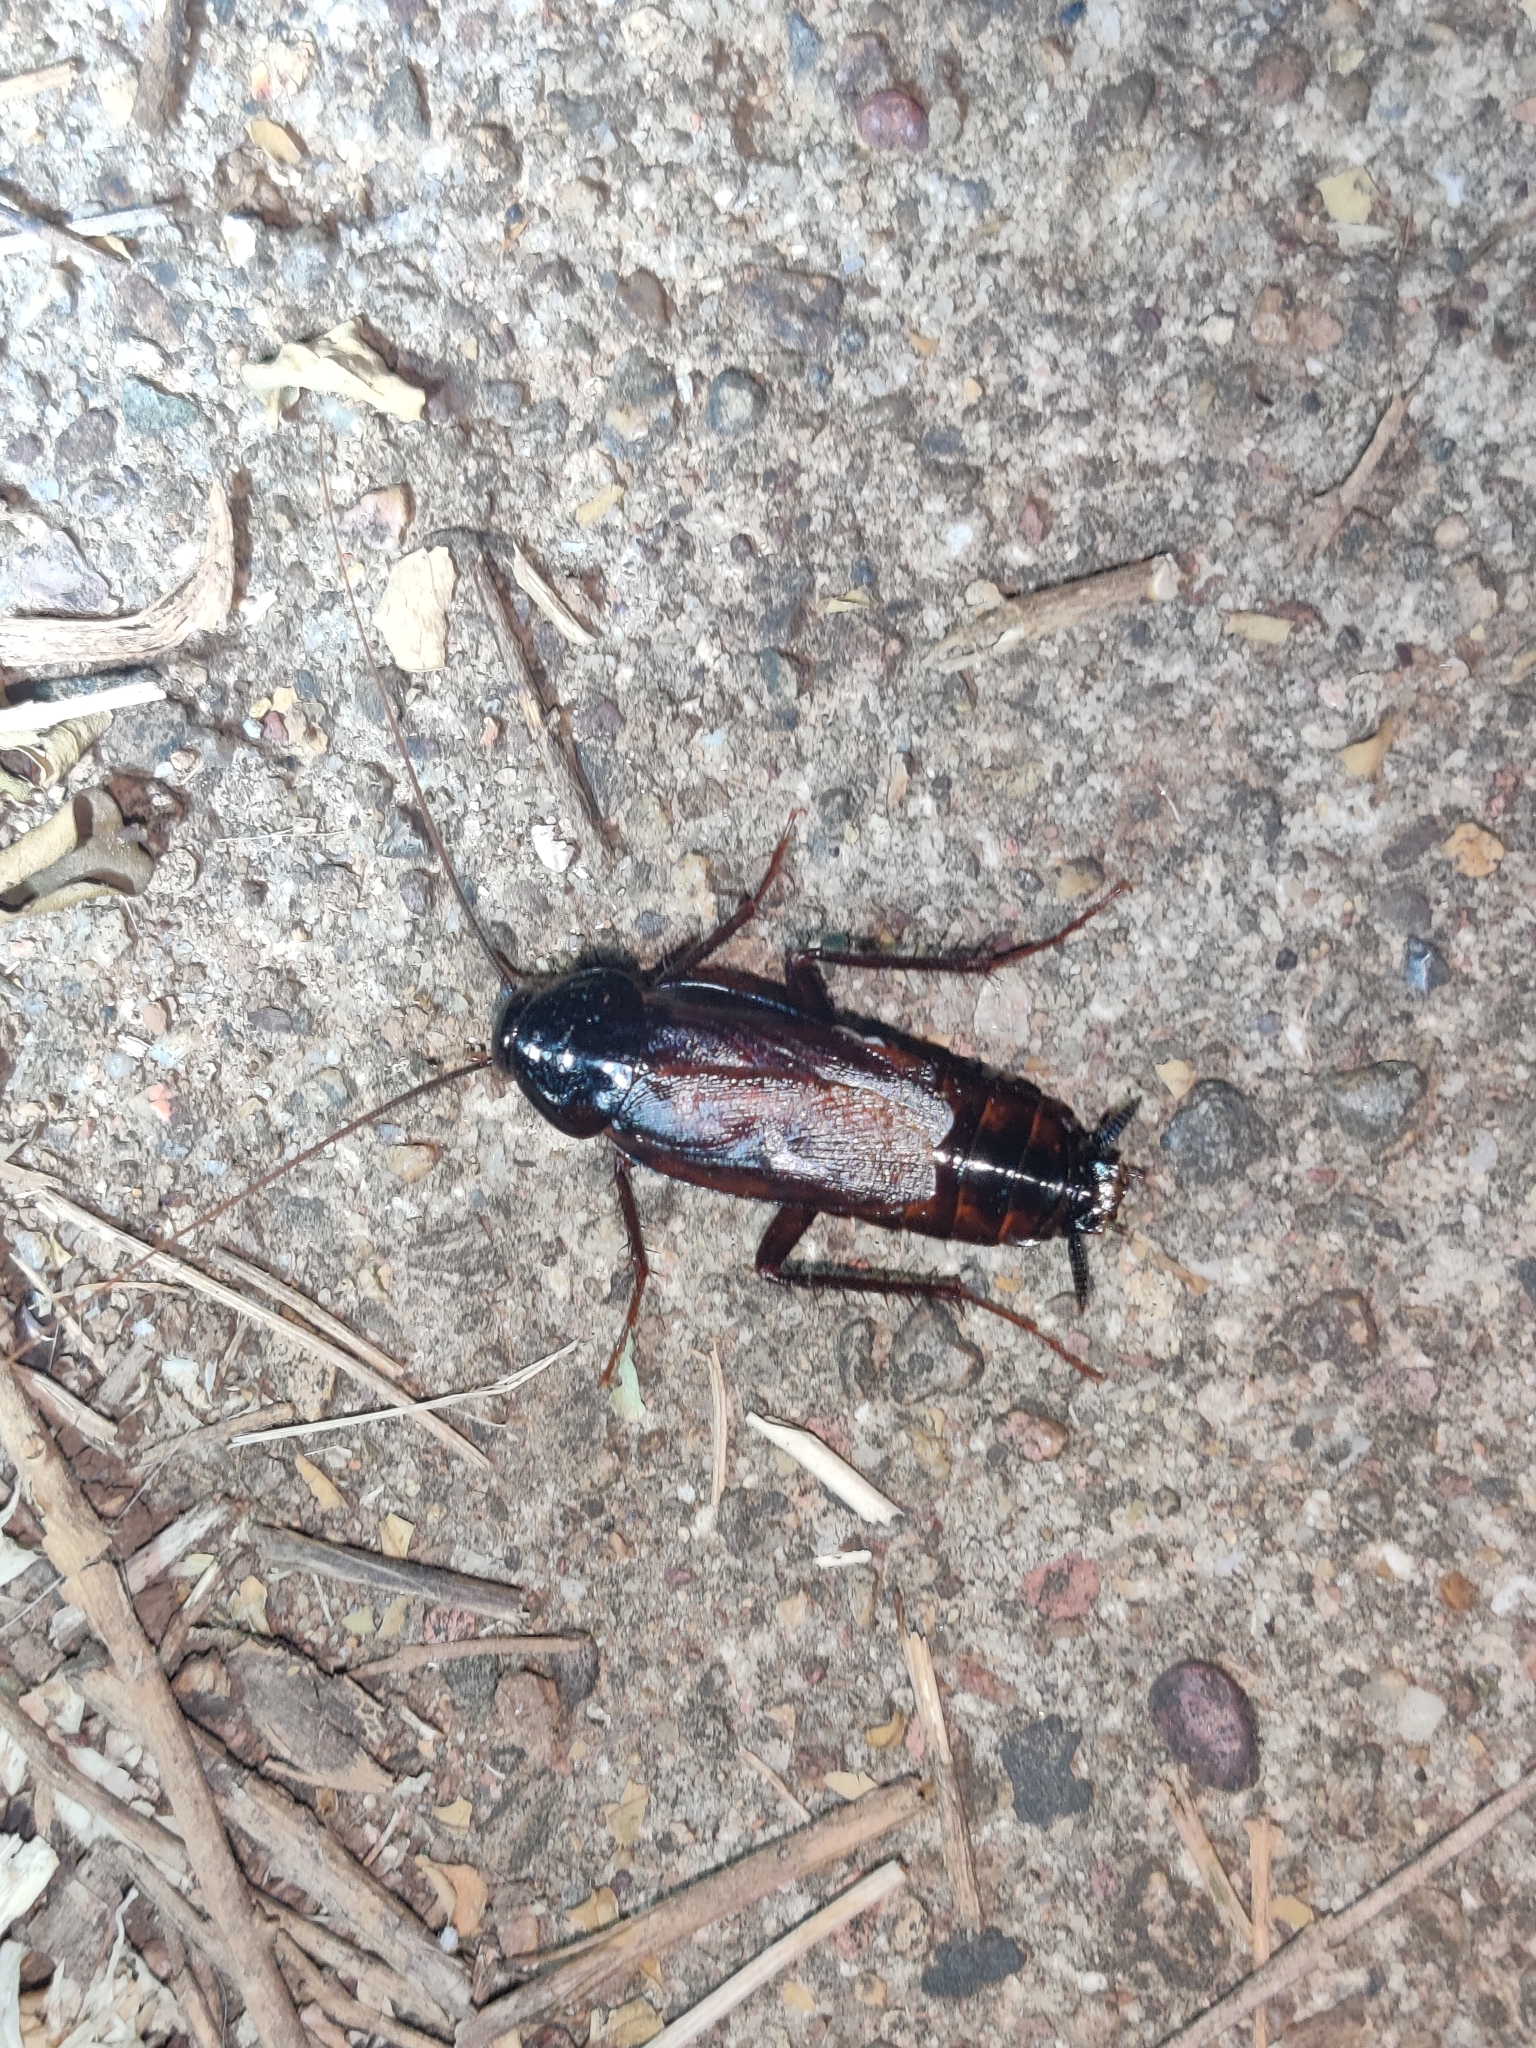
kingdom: Animalia
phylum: Arthropoda
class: Insecta
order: Blattodea
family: Blattidae
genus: Blatta
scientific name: Blatta orientalis
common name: Oriental cockroach
